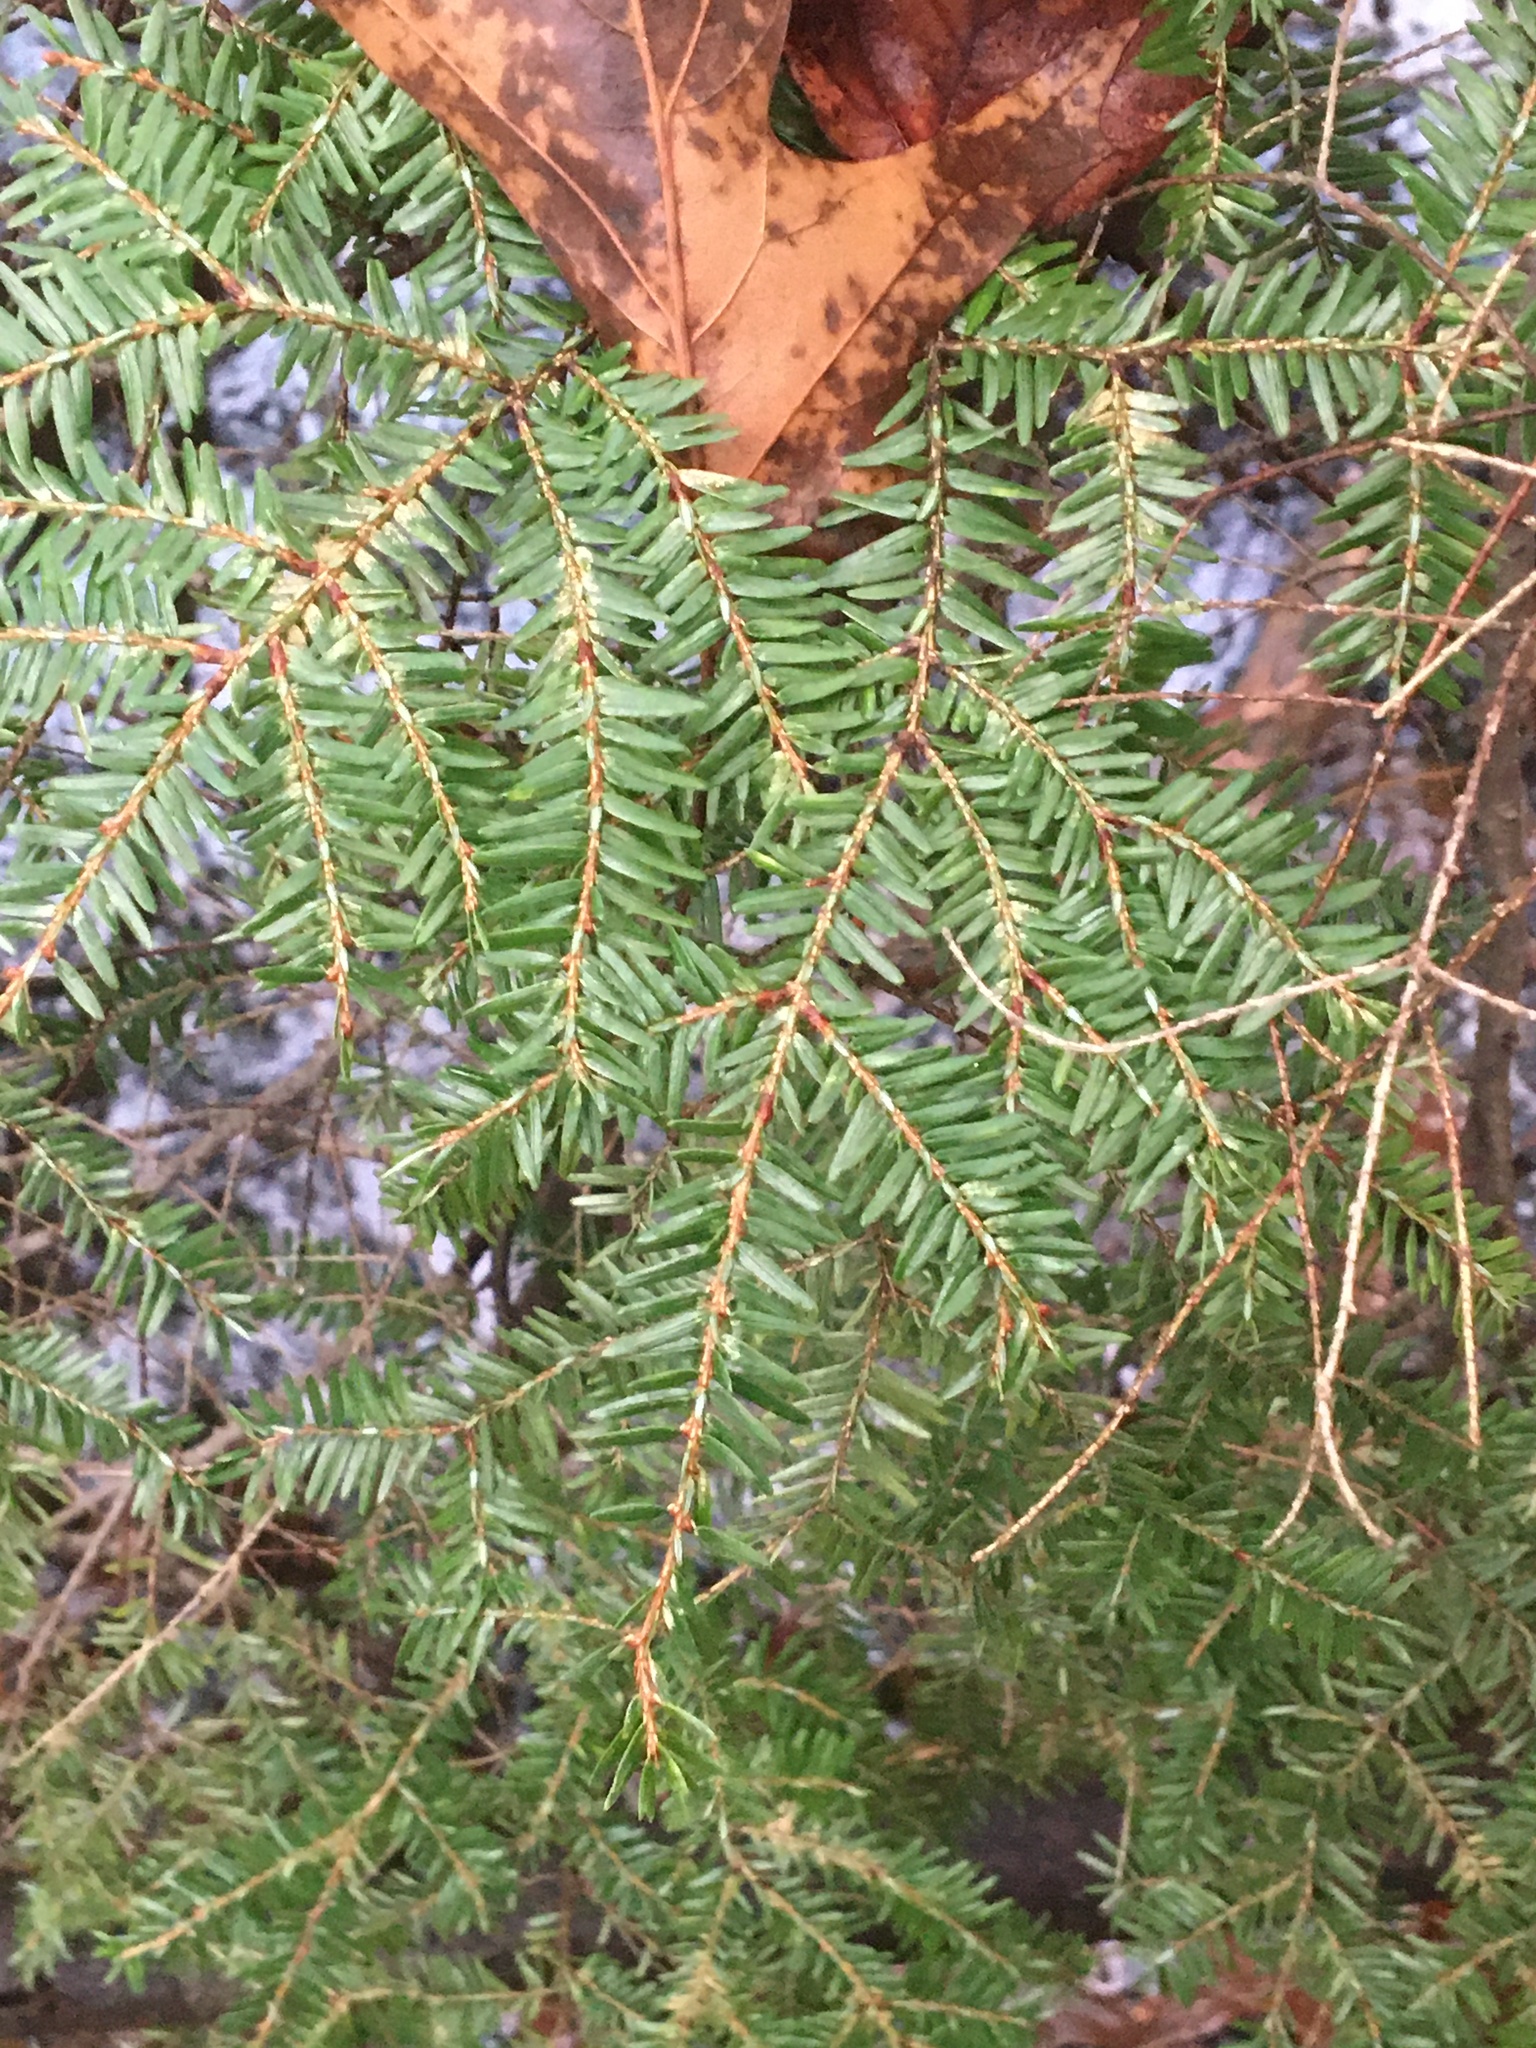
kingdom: Plantae
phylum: Tracheophyta
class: Pinopsida
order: Pinales
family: Pinaceae
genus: Tsuga
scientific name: Tsuga canadensis
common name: Eastern hemlock
